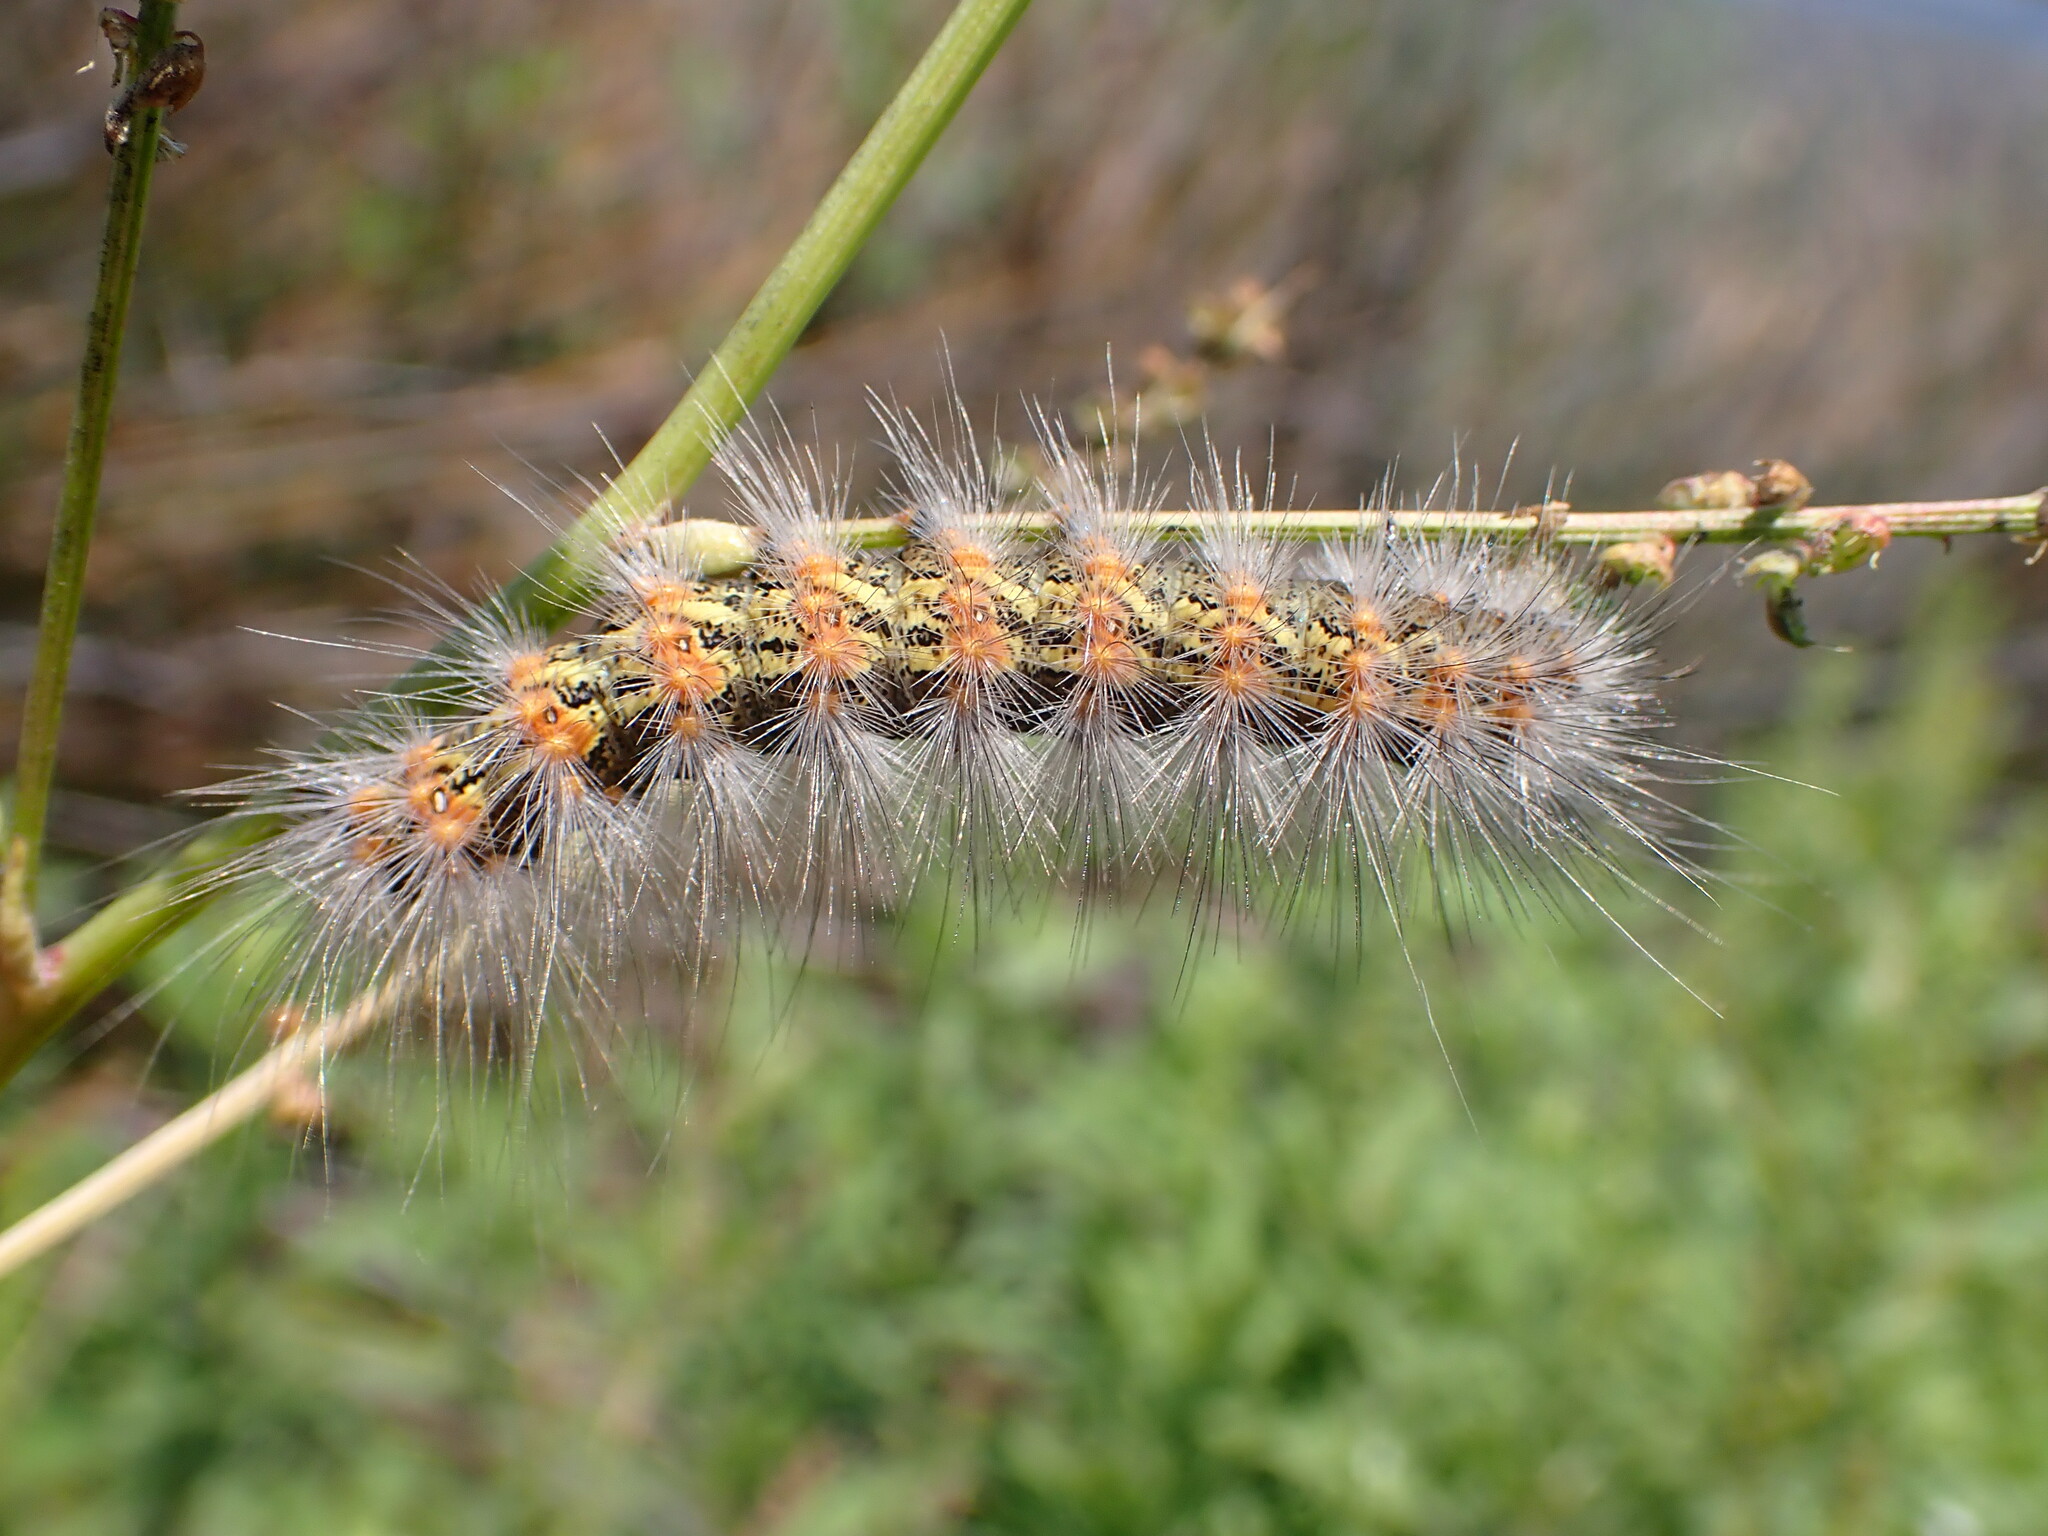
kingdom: Animalia
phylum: Arthropoda
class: Insecta
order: Lepidoptera
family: Erebidae
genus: Estigmene
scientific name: Estigmene acrea
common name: Salt marsh moth
